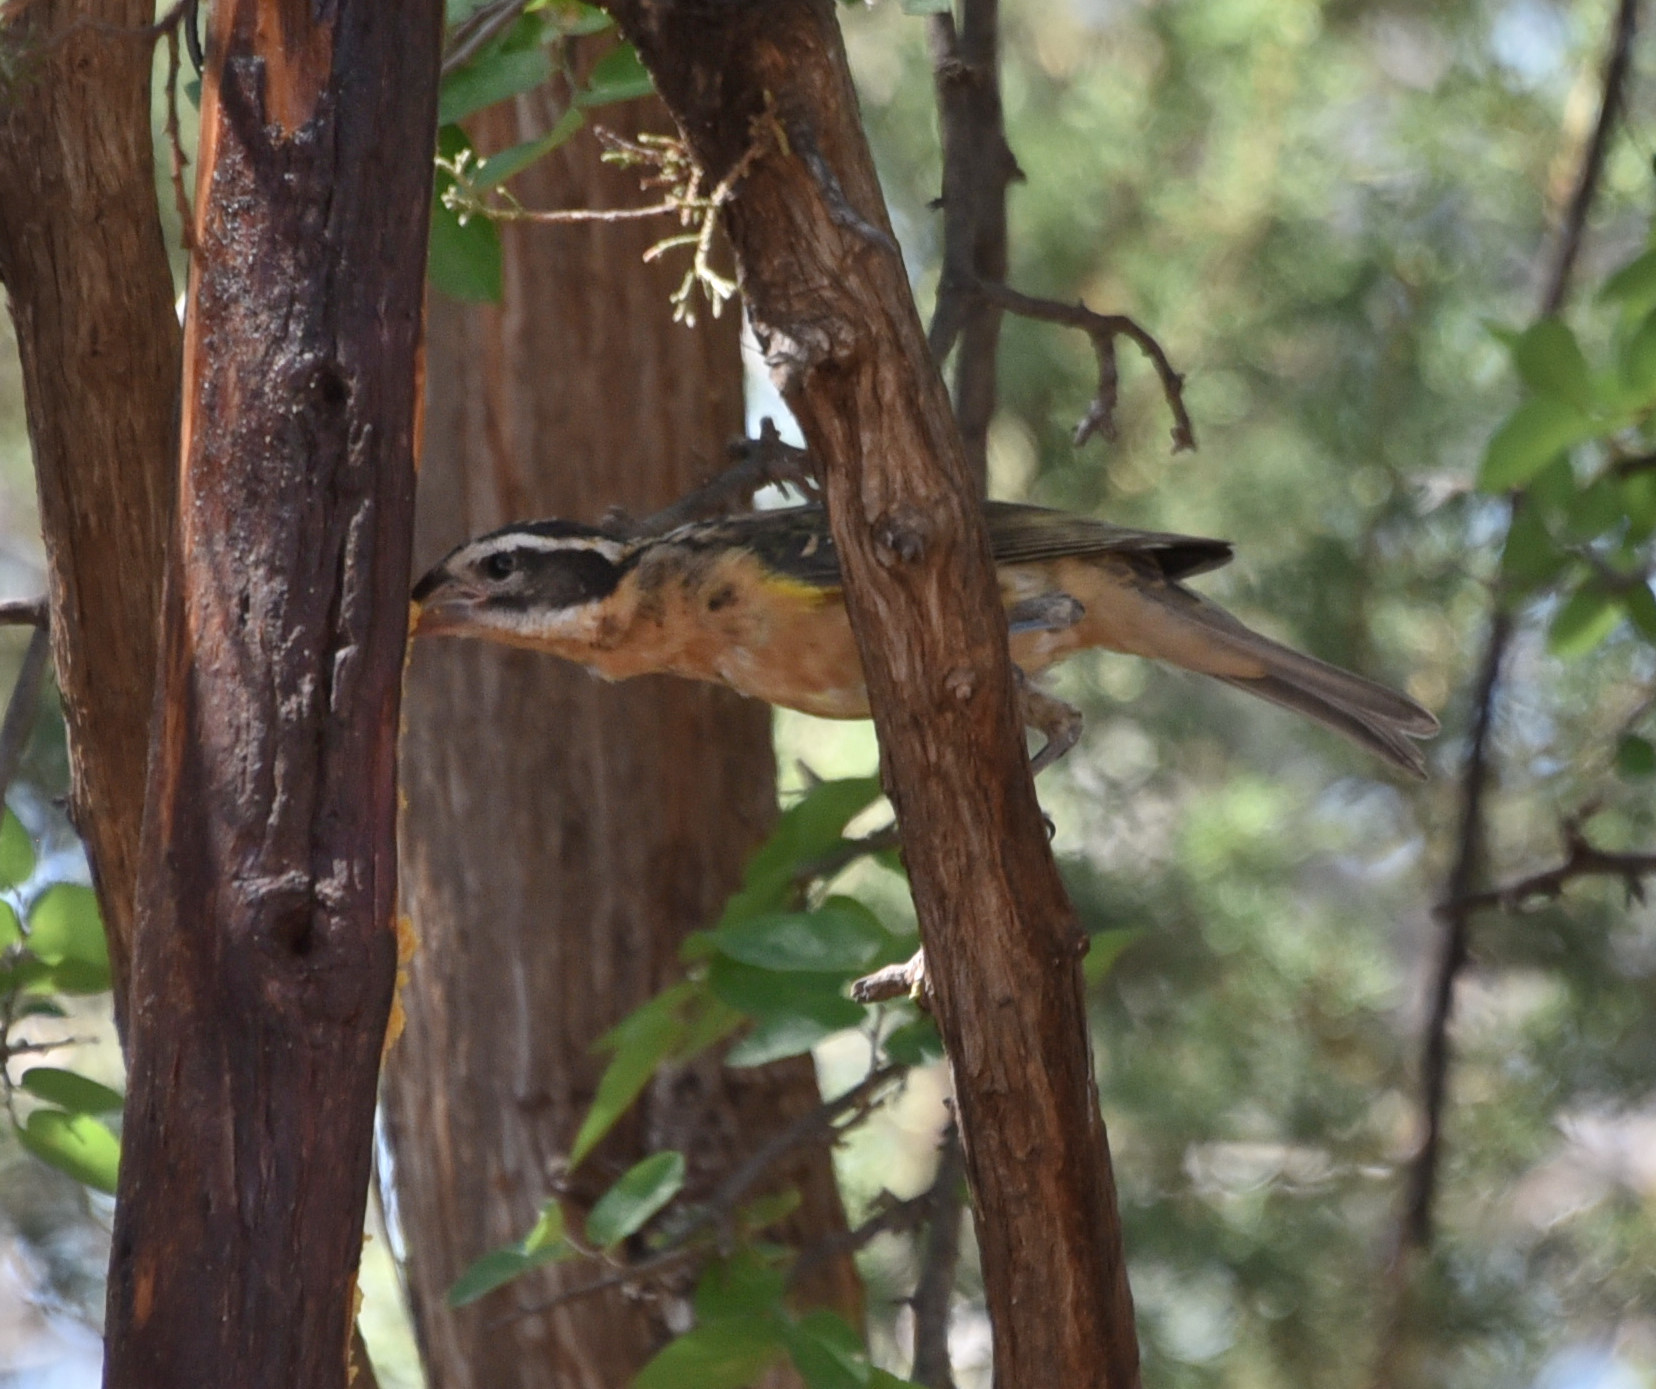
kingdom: Animalia
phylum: Chordata
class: Aves
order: Passeriformes
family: Cardinalidae
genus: Pheucticus
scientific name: Pheucticus melanocephalus
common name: Black-headed grosbeak
